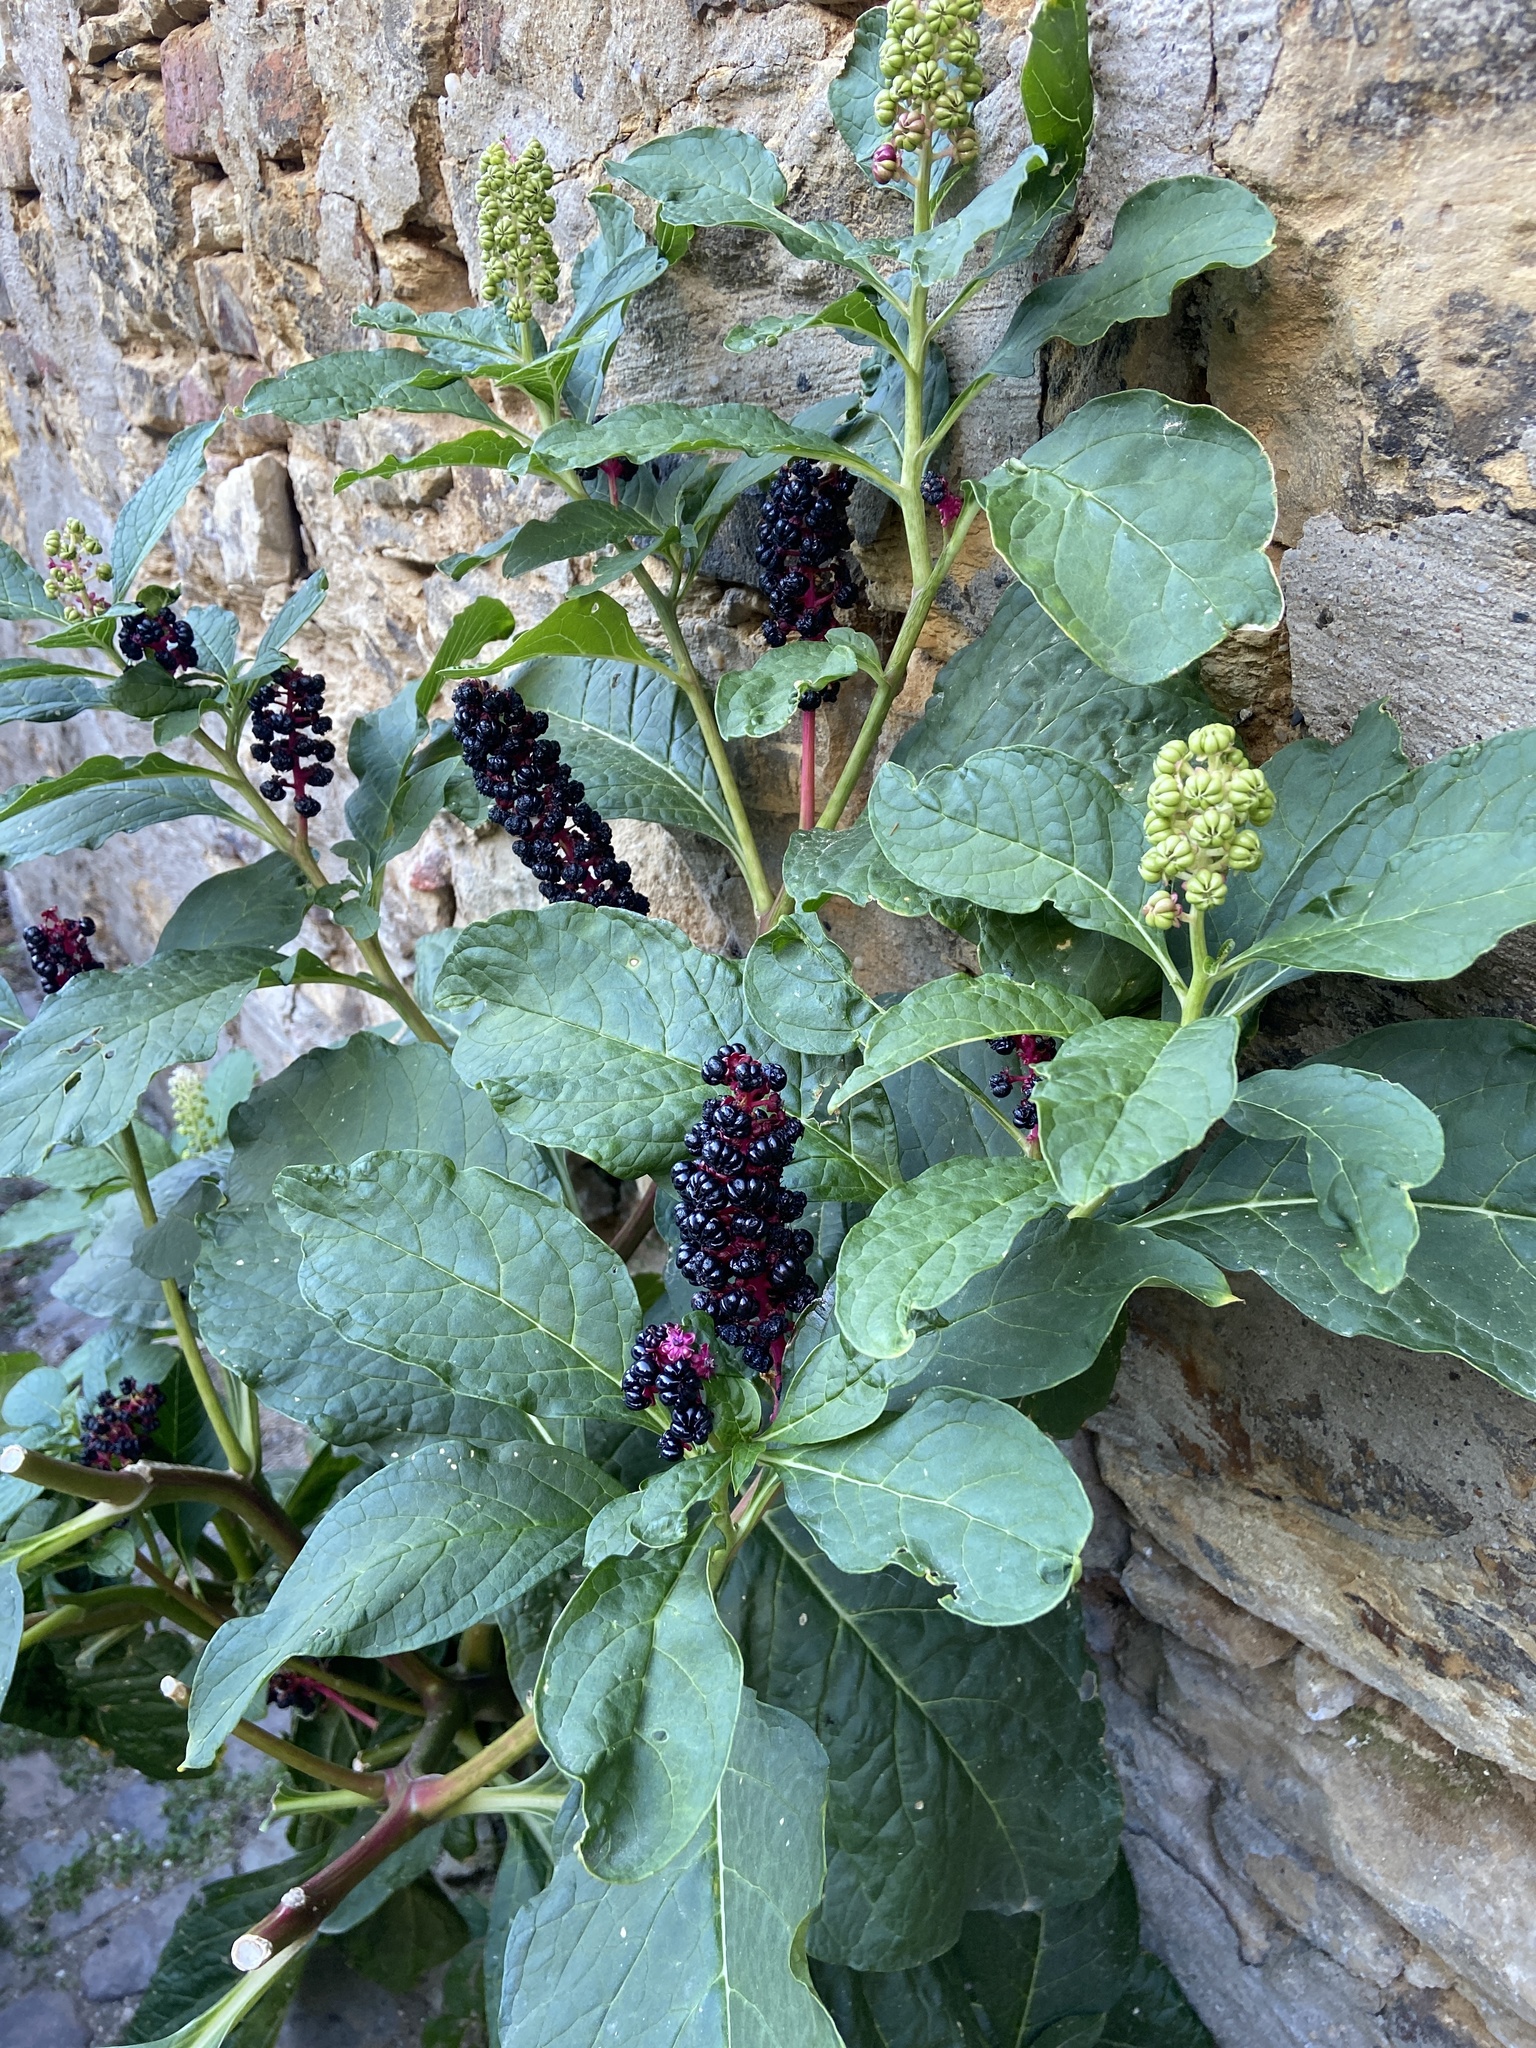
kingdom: Plantae
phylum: Tracheophyta
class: Magnoliopsida
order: Caryophyllales
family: Phytolaccaceae
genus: Phytolacca
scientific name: Phytolacca acinosa
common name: Indian pokeweed
